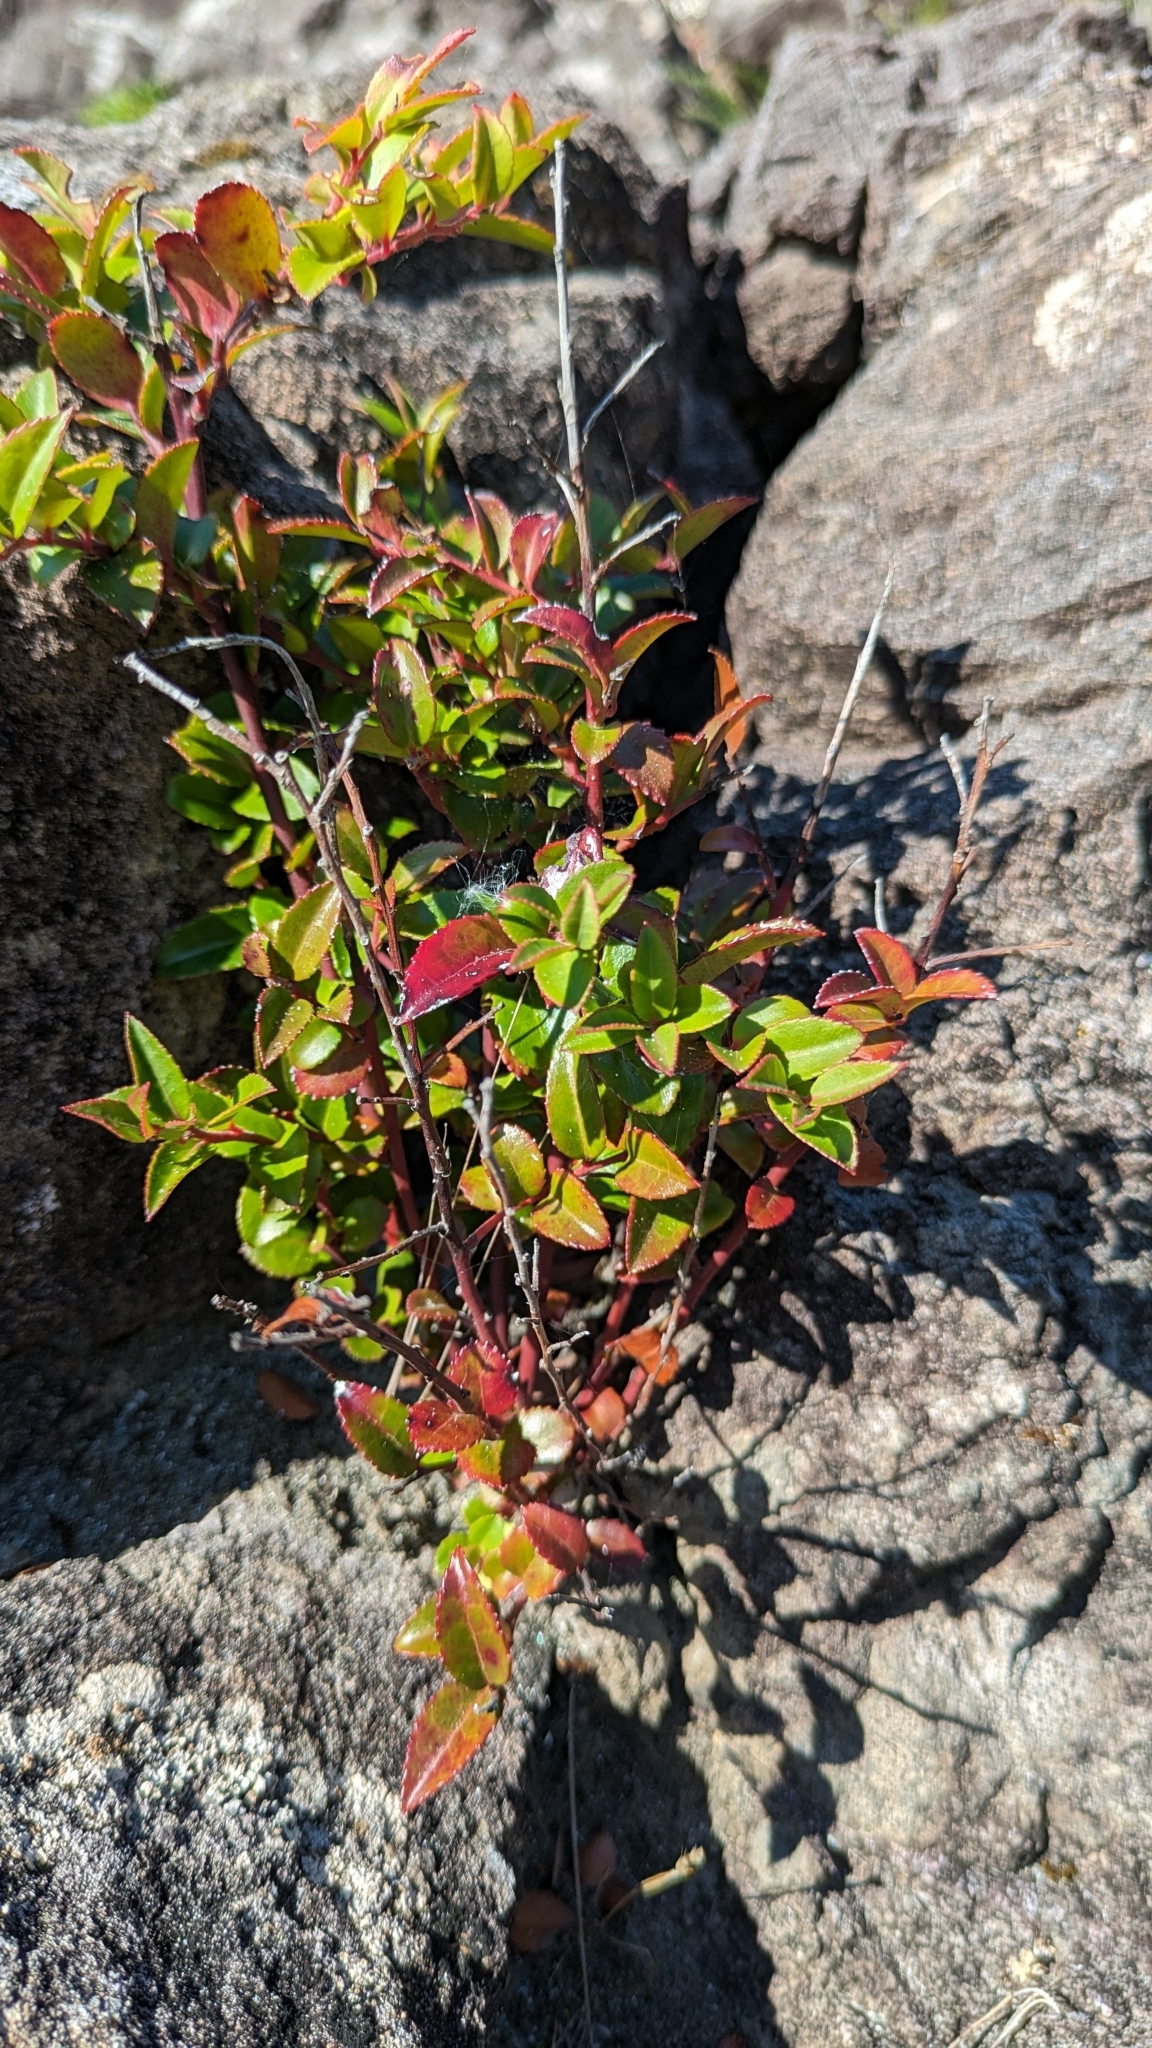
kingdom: Plantae
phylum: Tracheophyta
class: Magnoliopsida
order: Ericales
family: Ericaceae
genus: Vaccinium
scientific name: Vaccinium ovatum
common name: California-huckleberry
